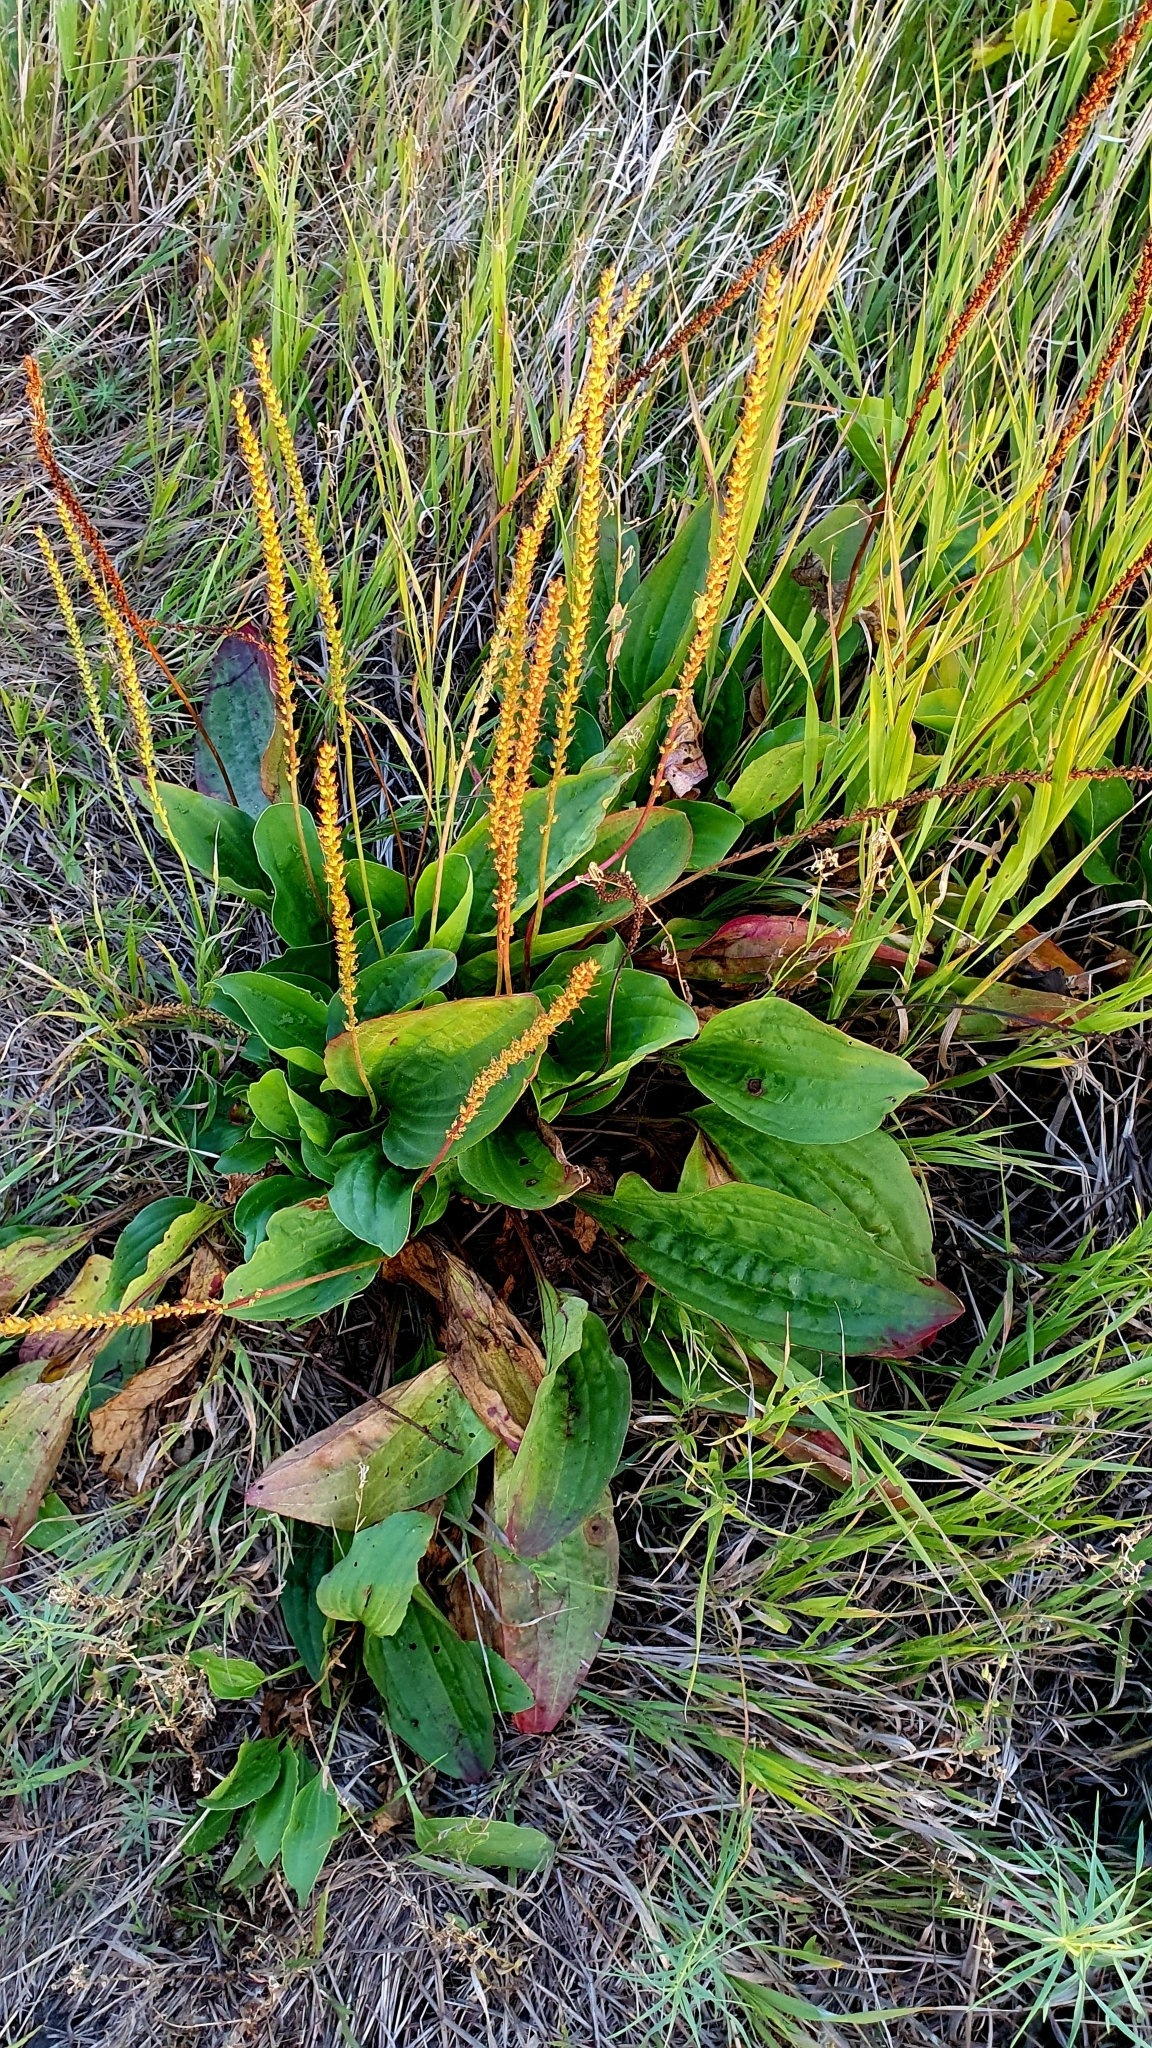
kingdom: Plantae
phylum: Tracheophyta
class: Magnoliopsida
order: Lamiales
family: Plantaginaceae
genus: Plantago
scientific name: Plantago cornuti
